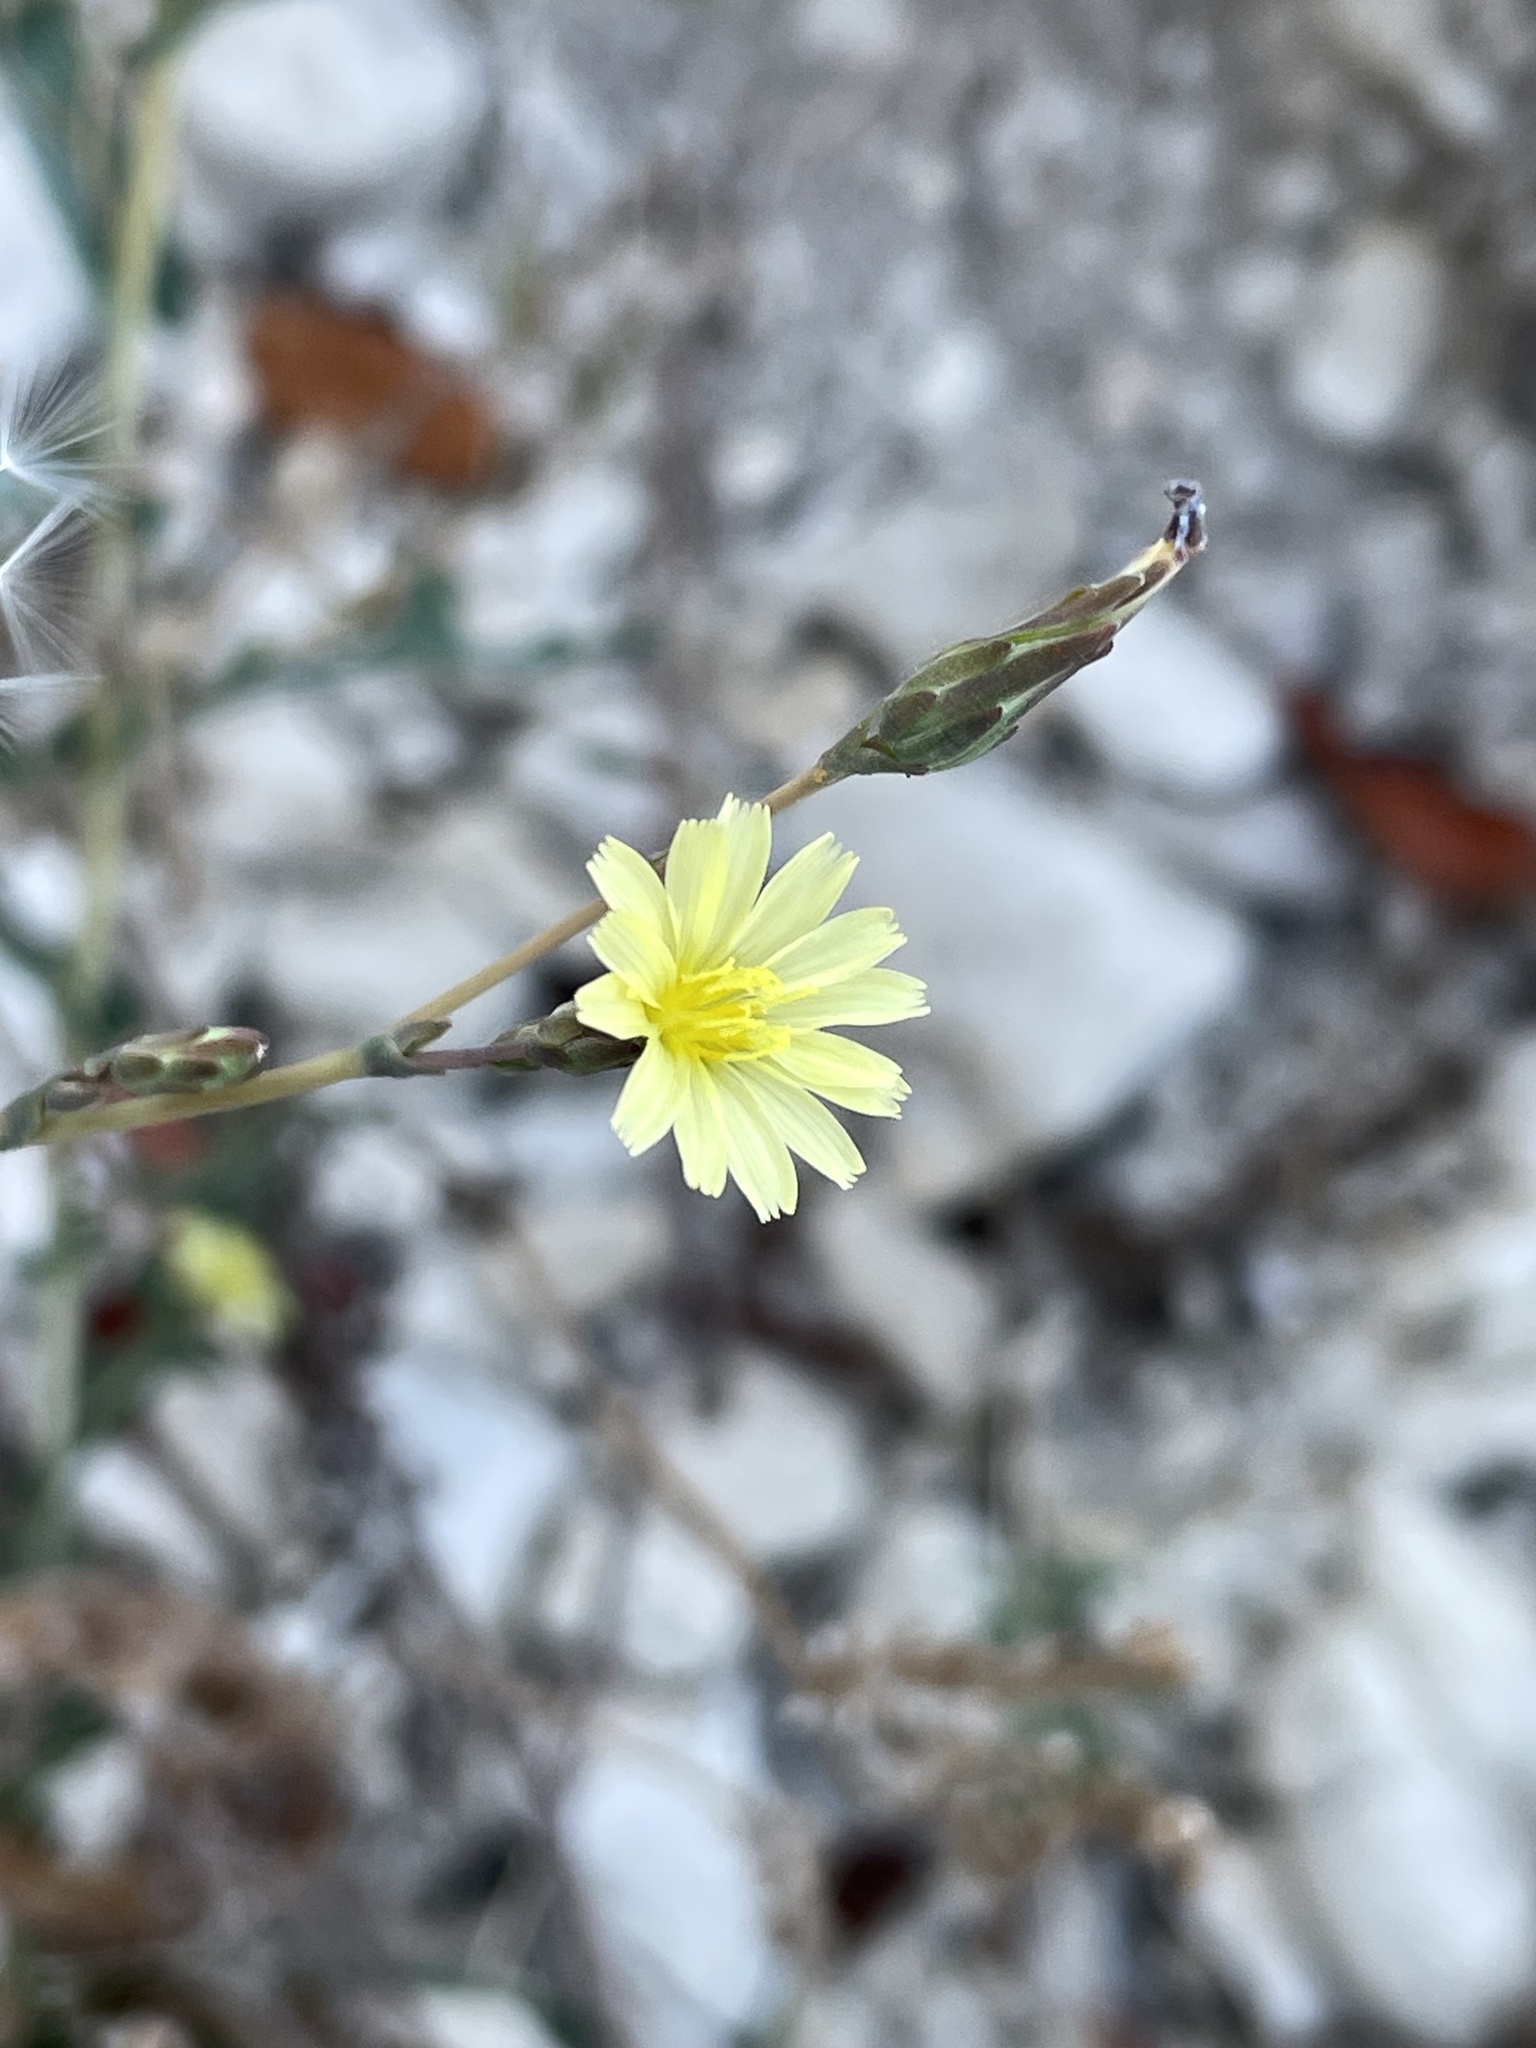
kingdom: Plantae
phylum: Tracheophyta
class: Magnoliopsida
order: Asterales
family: Asteraceae
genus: Lactuca
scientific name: Lactuca serriola
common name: Prickly lettuce
